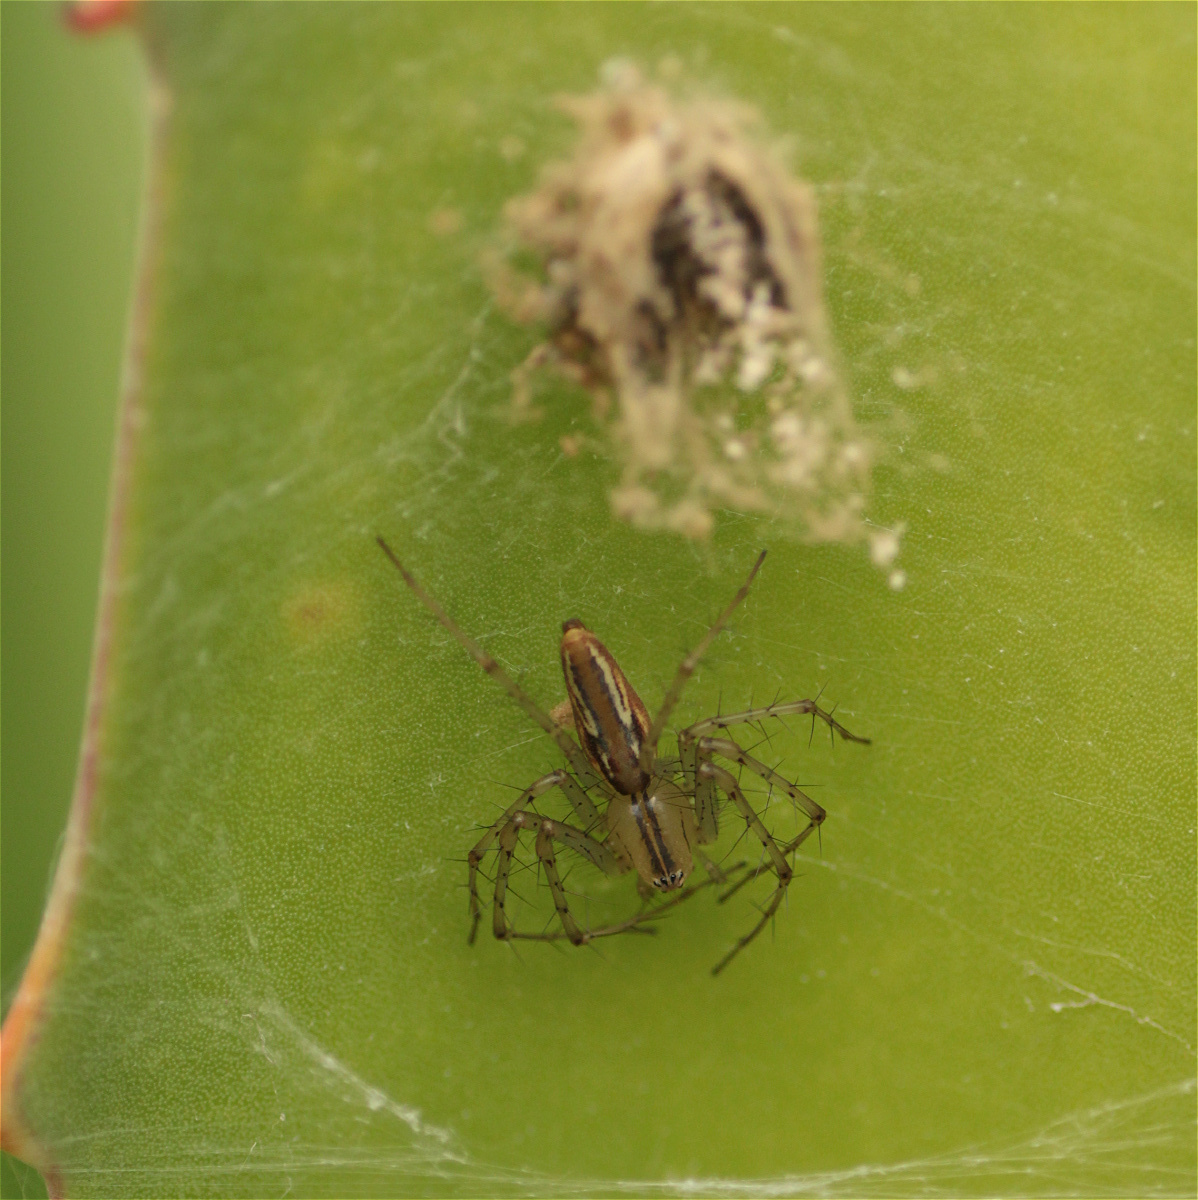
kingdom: Animalia
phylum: Arthropoda
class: Arachnida
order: Araneae
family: Oxyopidae
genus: Peucetia
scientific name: Peucetia rubrolineata
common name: Lynx spiders
